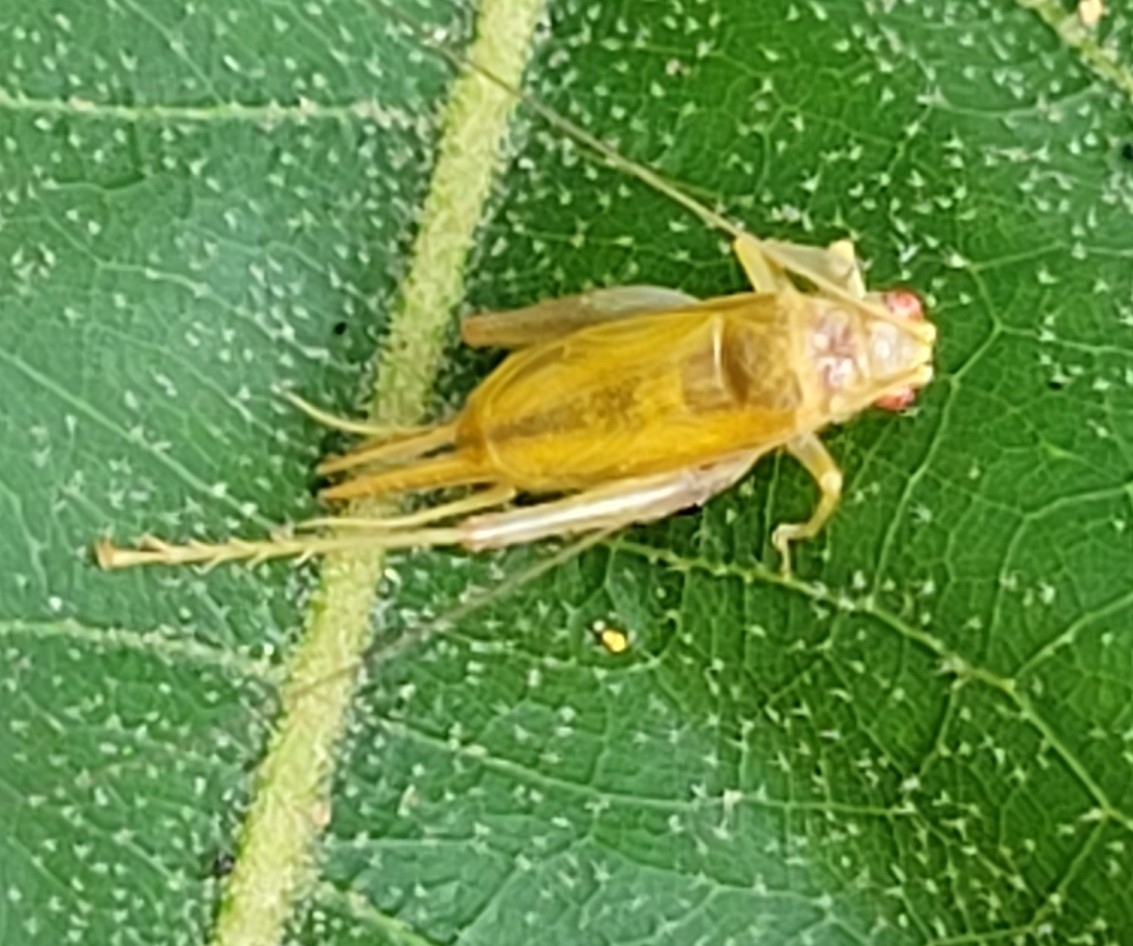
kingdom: Animalia
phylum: Arthropoda
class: Insecta
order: Orthoptera
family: Trigonidiidae
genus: Cyrtoxipha
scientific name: Cyrtoxipha columbiana
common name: Columbian trig
